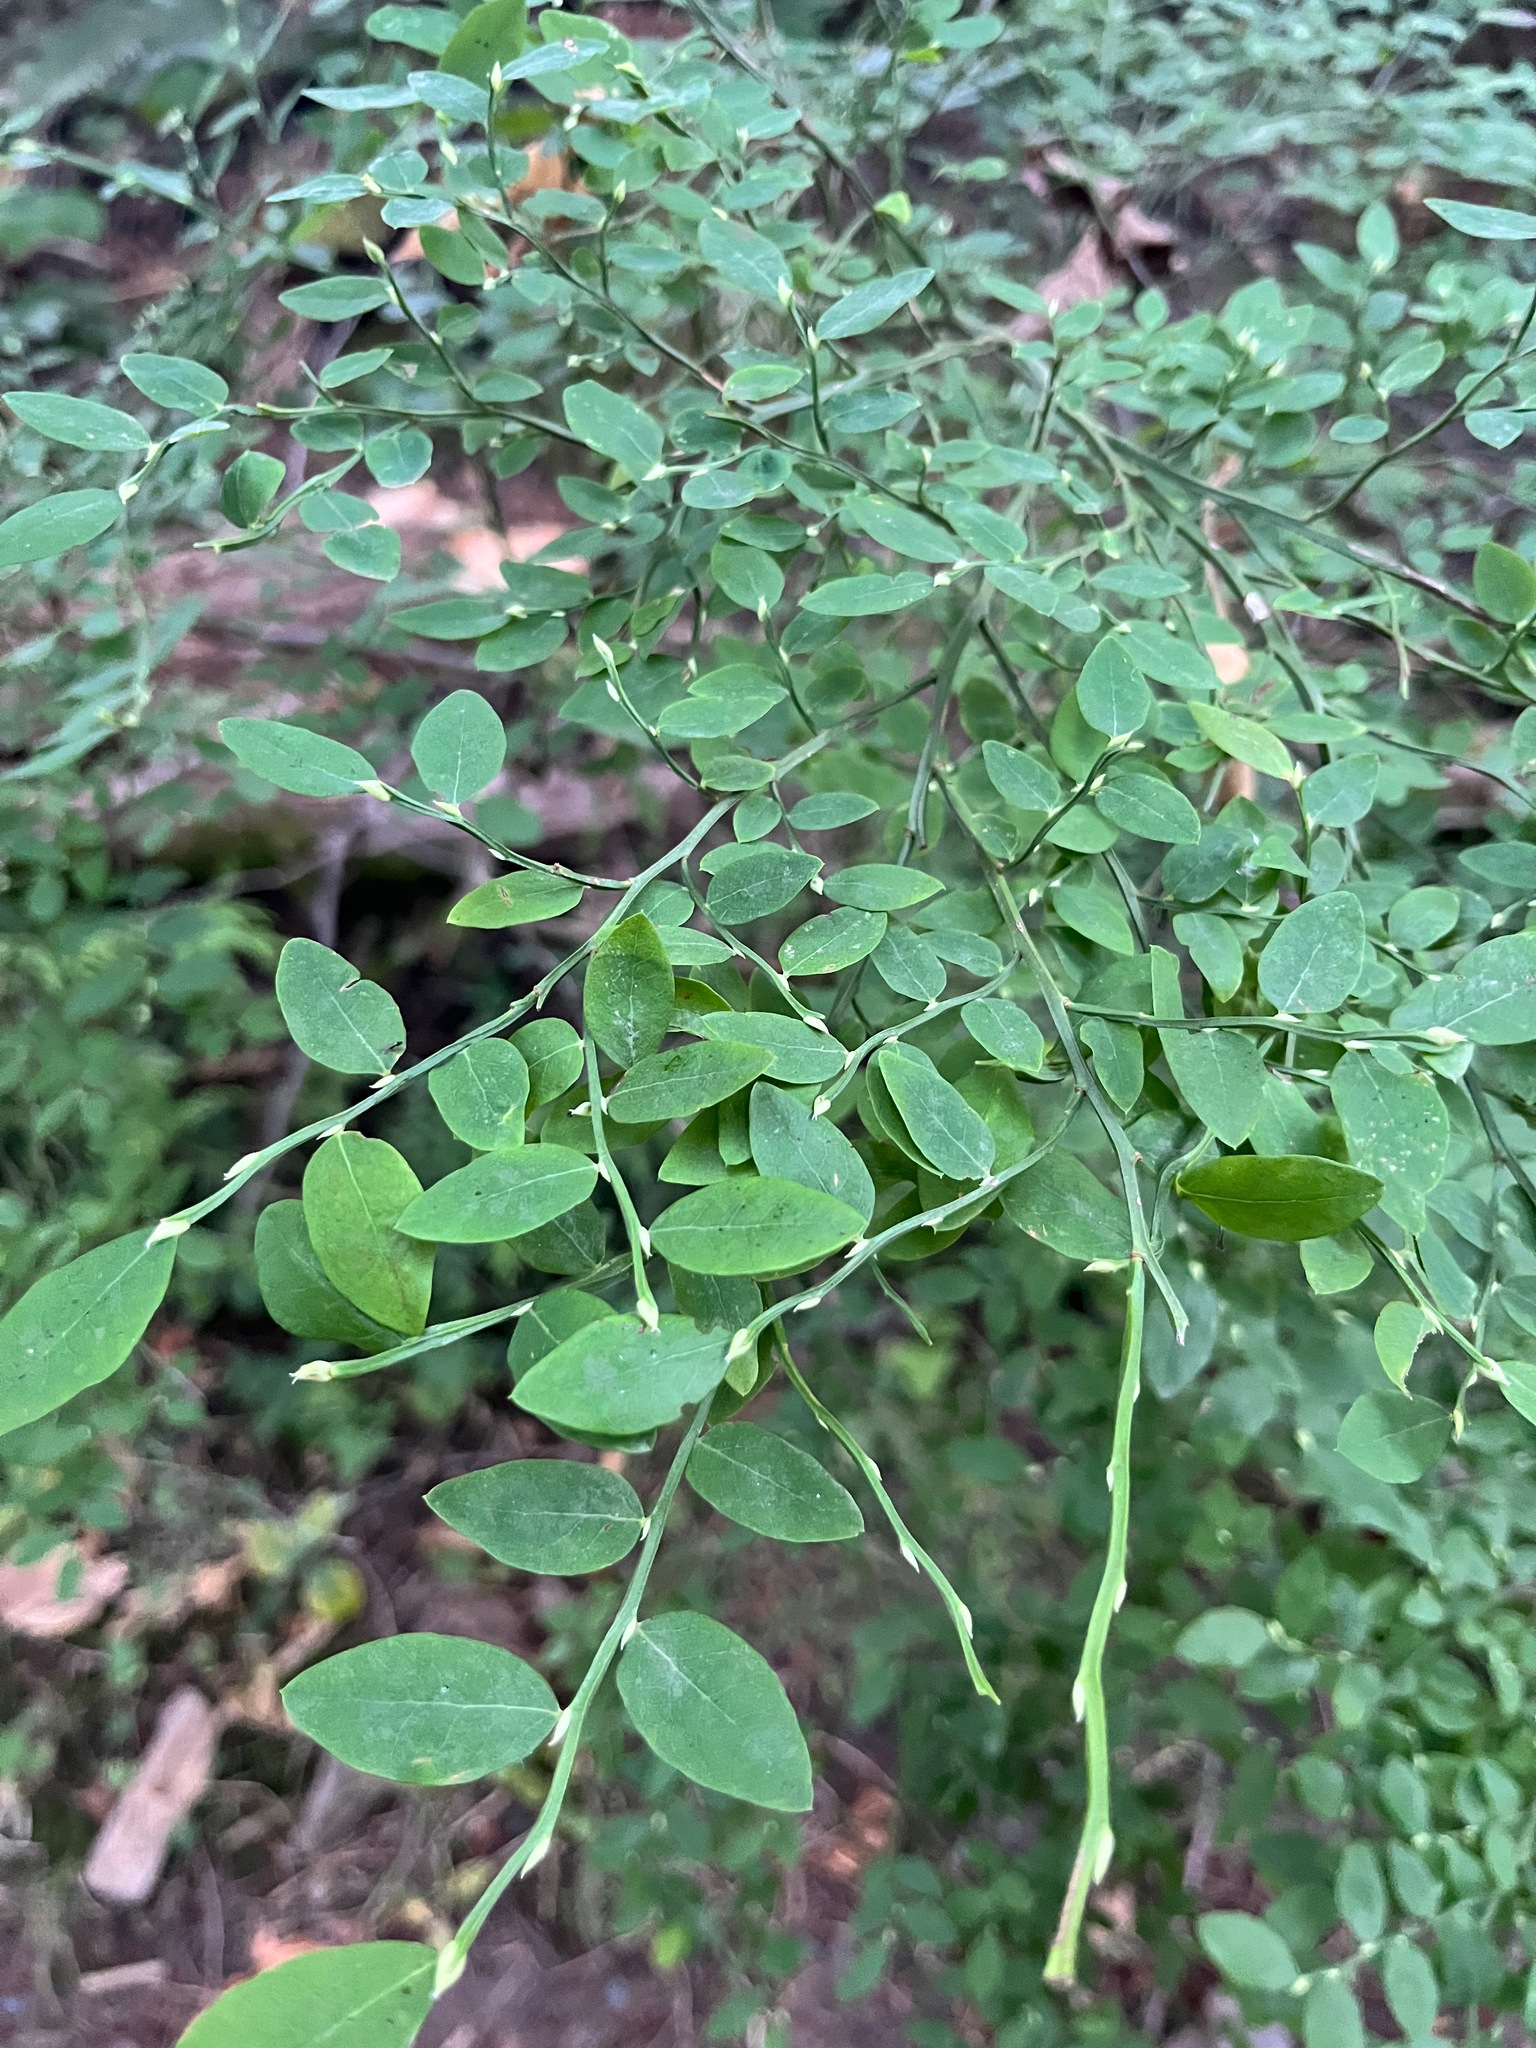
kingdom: Plantae
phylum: Tracheophyta
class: Magnoliopsida
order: Ericales
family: Ericaceae
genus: Vaccinium
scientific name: Vaccinium parvifolium
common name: Red-huckleberry
